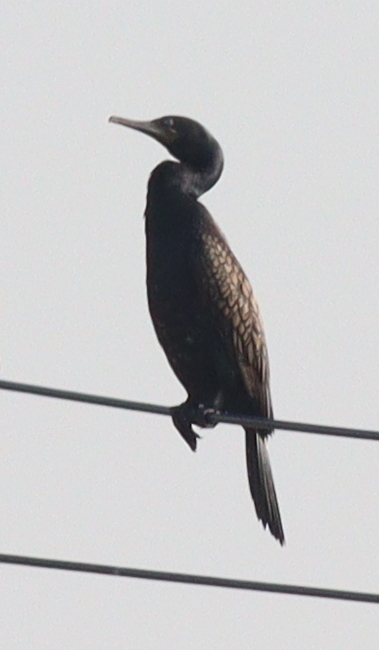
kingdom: Animalia
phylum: Chordata
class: Aves
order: Suliformes
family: Phalacrocoracidae
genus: Phalacrocorax
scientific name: Phalacrocorax fuscicollis
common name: Indian cormorant
